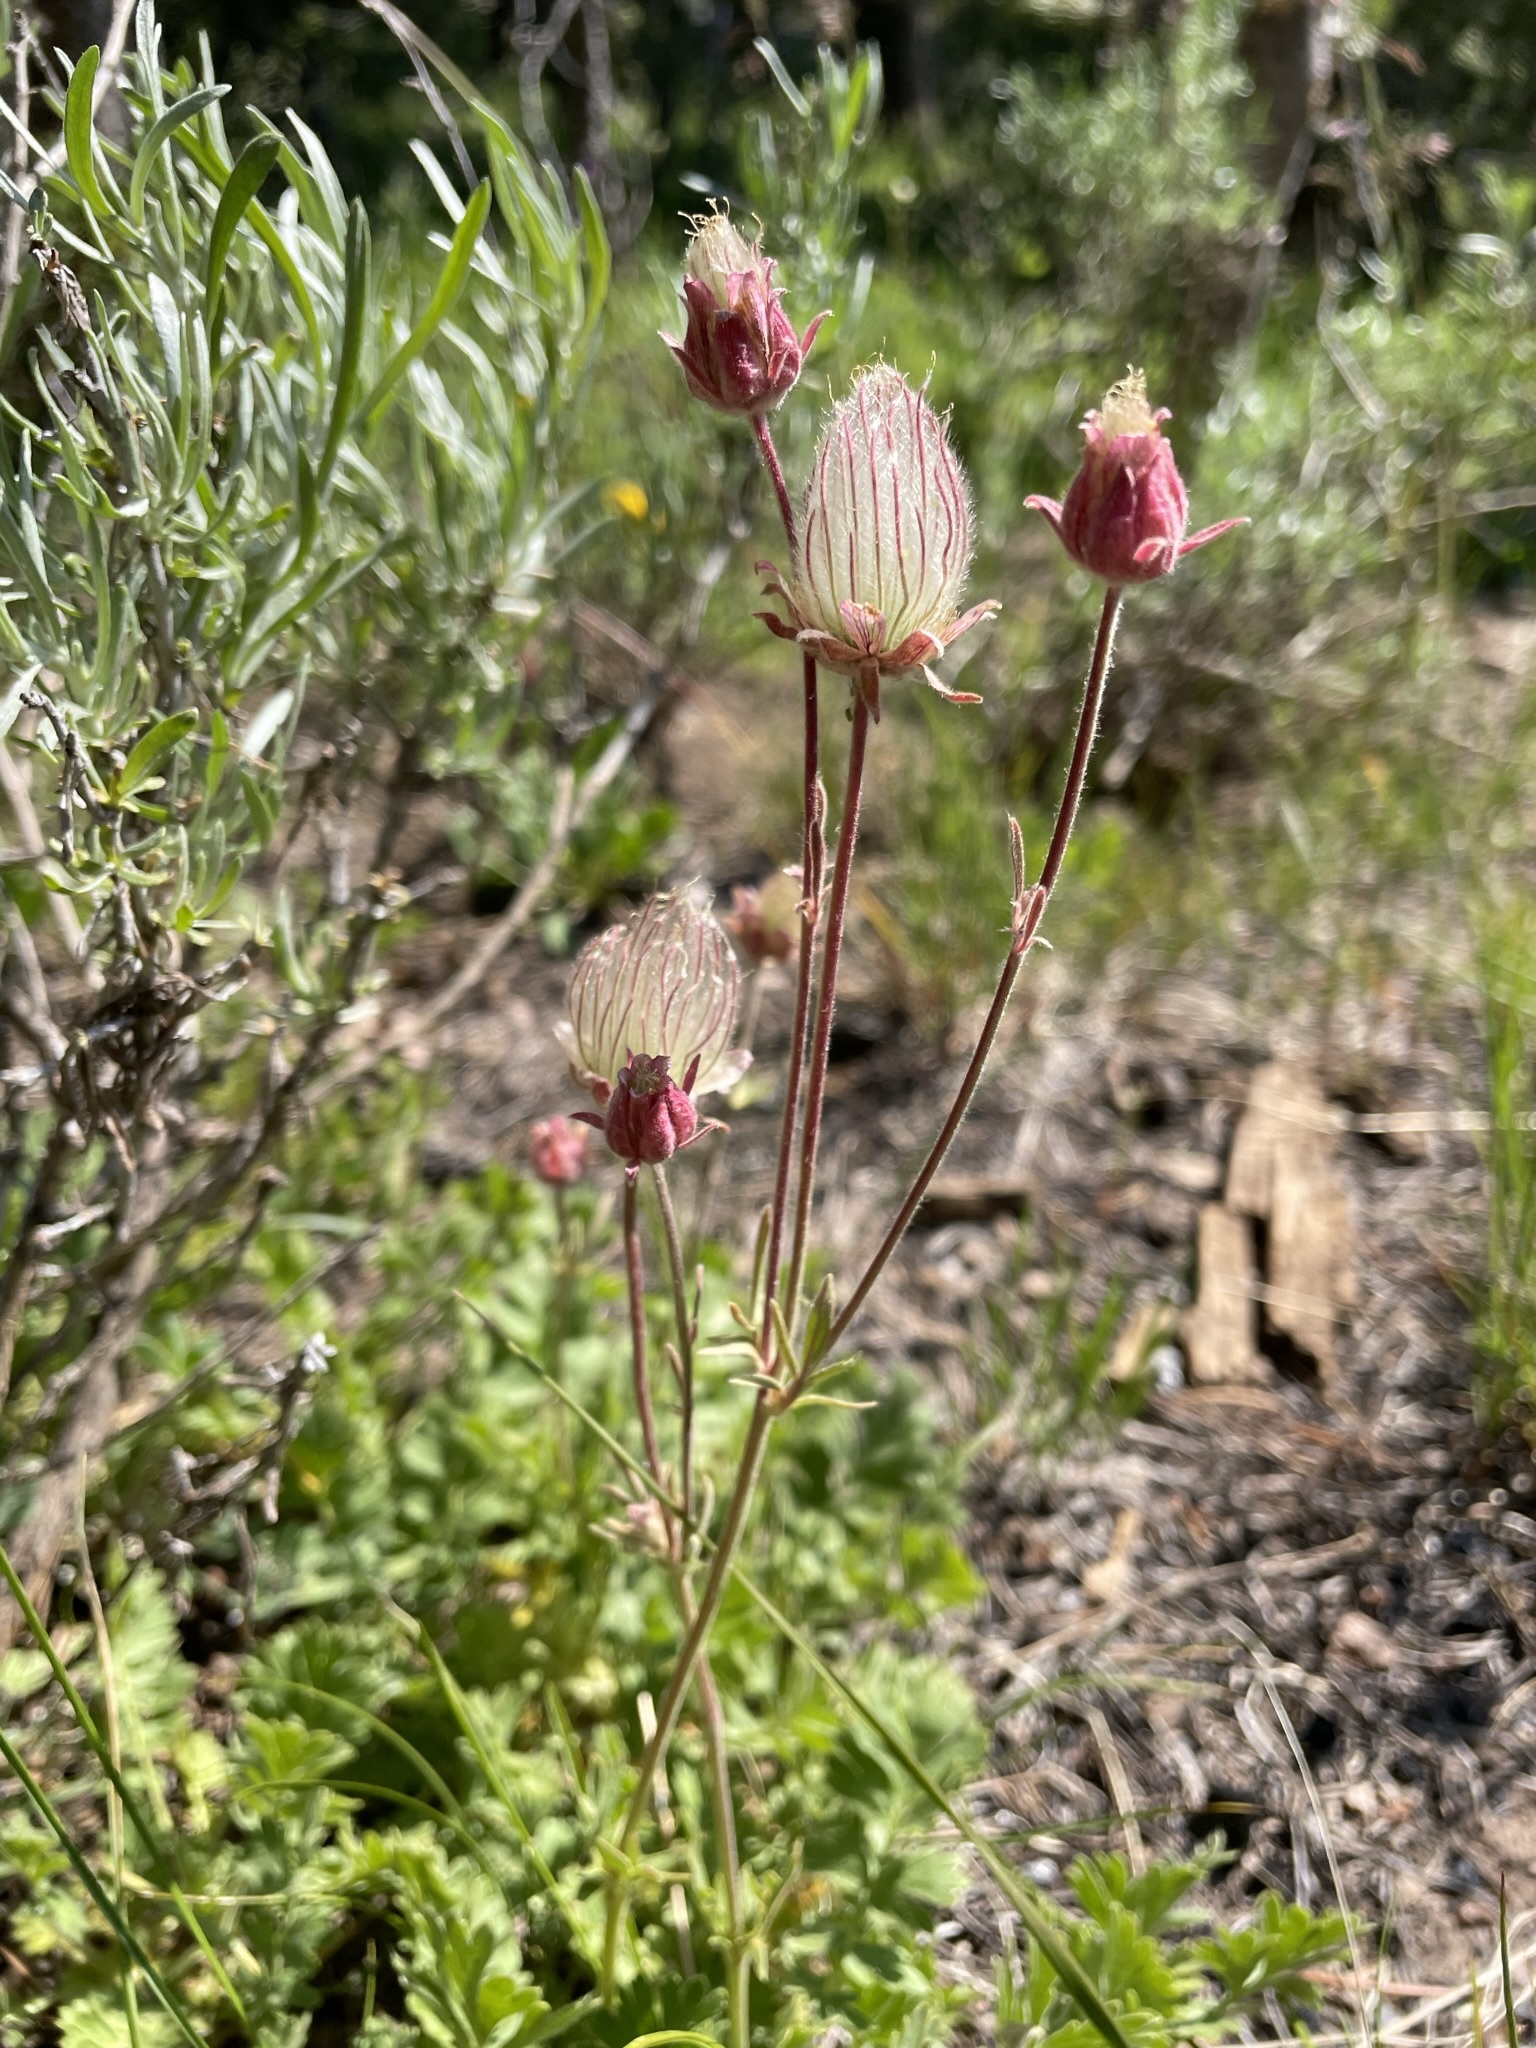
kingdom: Plantae
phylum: Tracheophyta
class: Magnoliopsida
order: Rosales
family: Rosaceae
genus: Geum
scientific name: Geum triflorum
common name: Old man's whiskers
